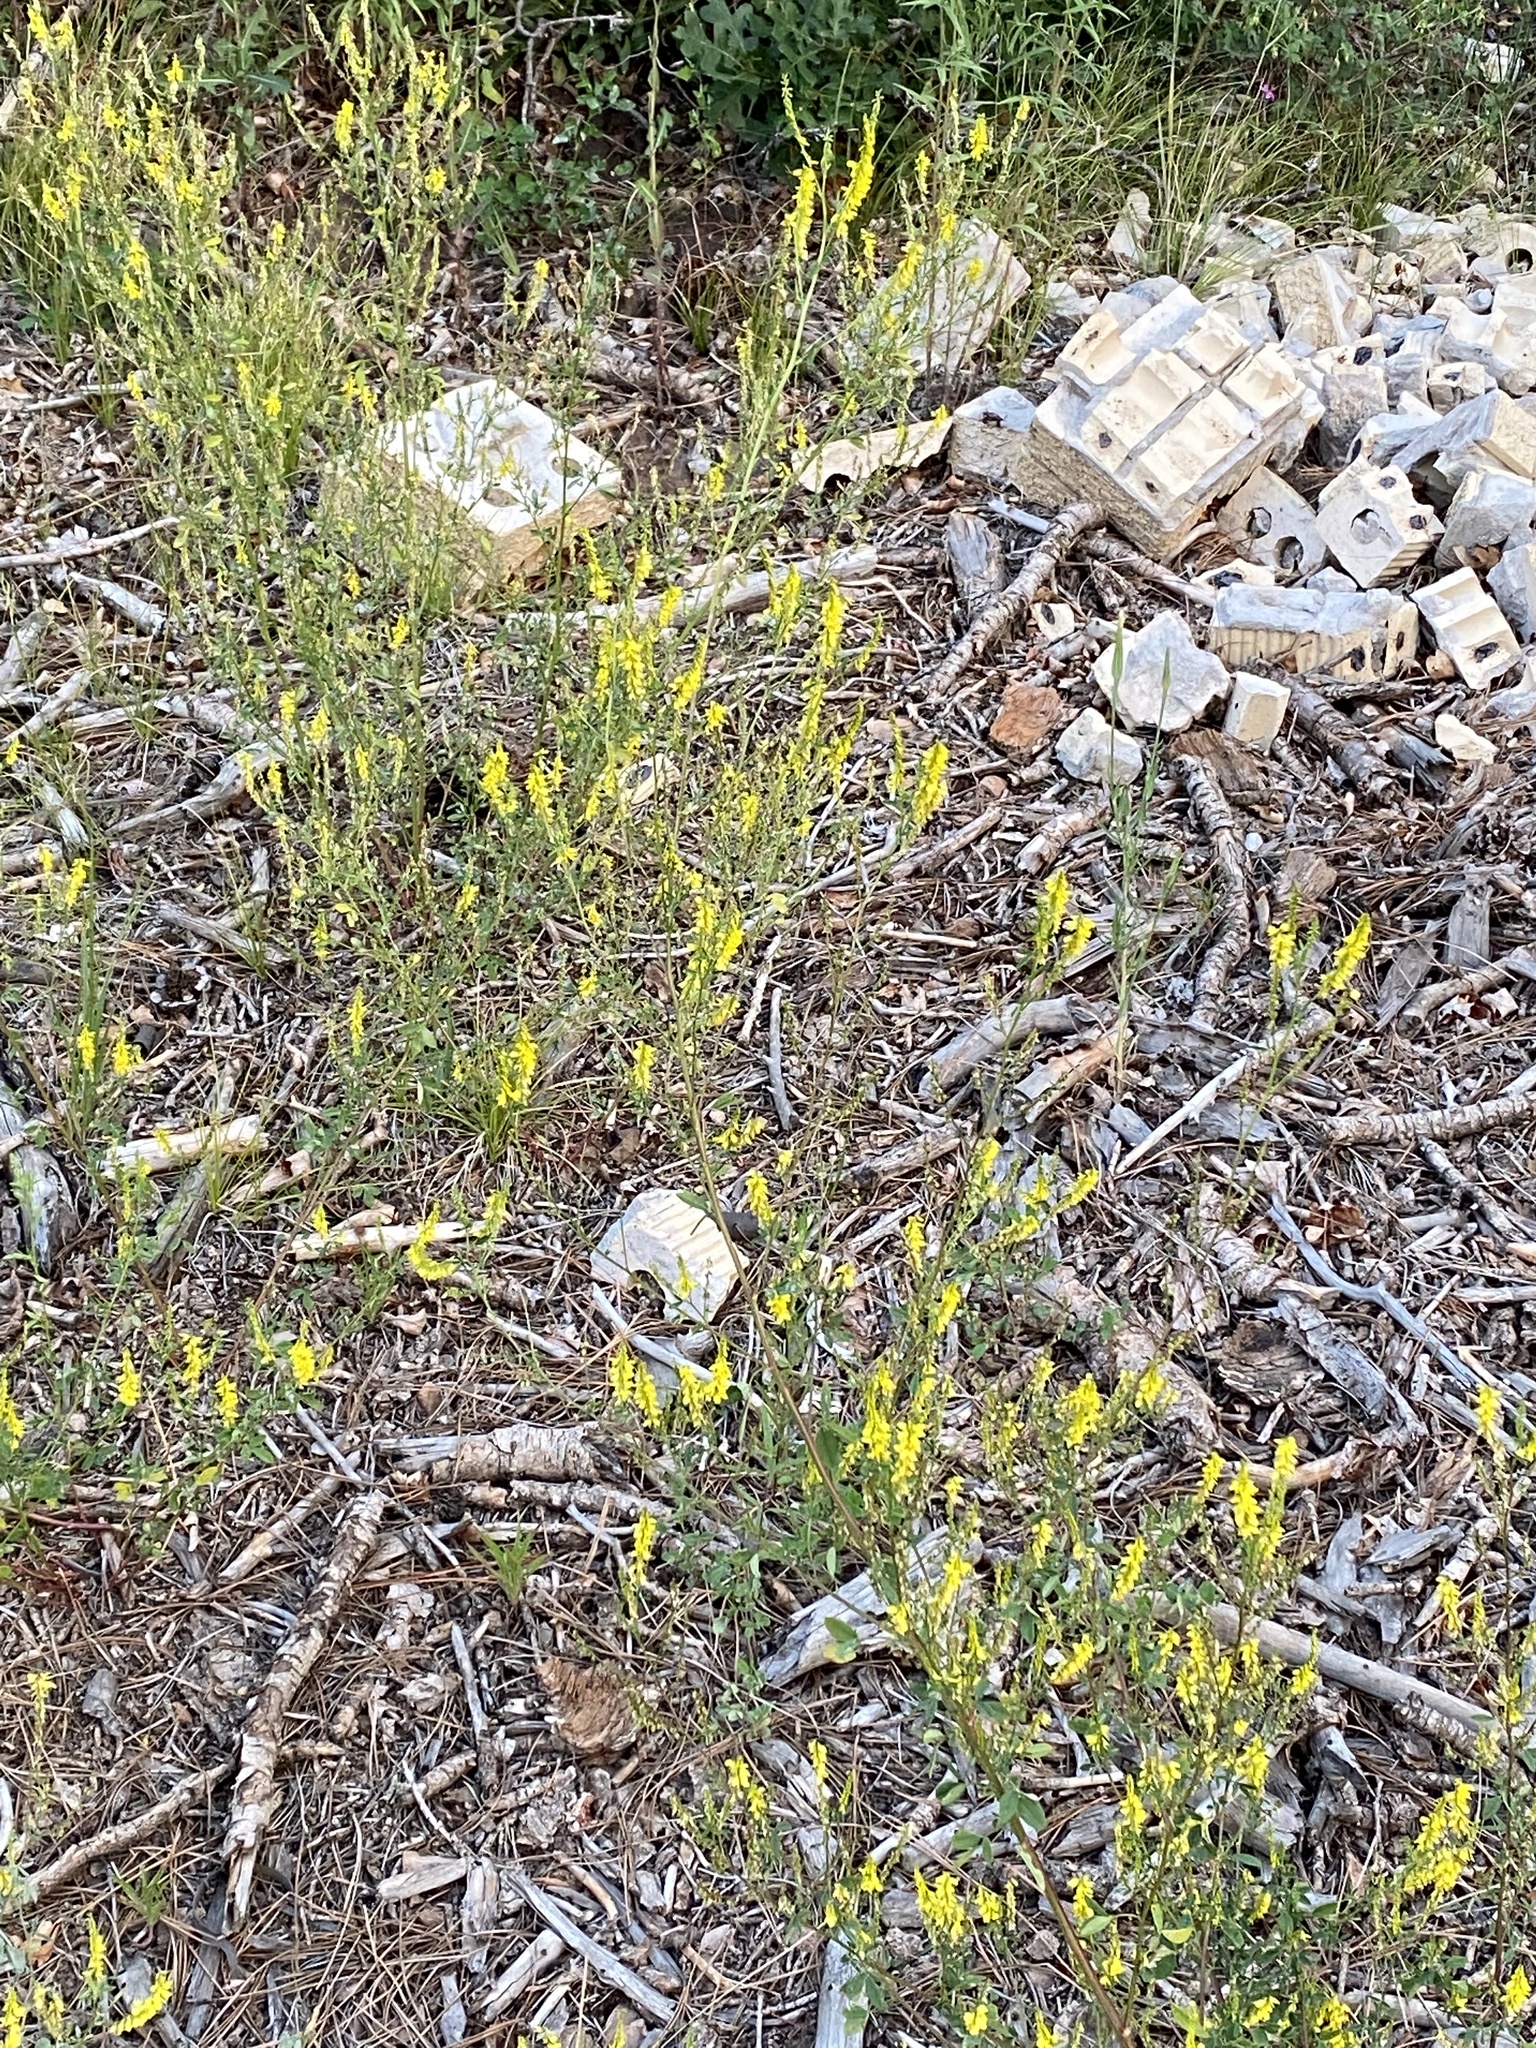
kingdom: Plantae
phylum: Tracheophyta
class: Magnoliopsida
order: Fabales
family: Fabaceae
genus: Melilotus
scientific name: Melilotus officinalis
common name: Sweetclover
